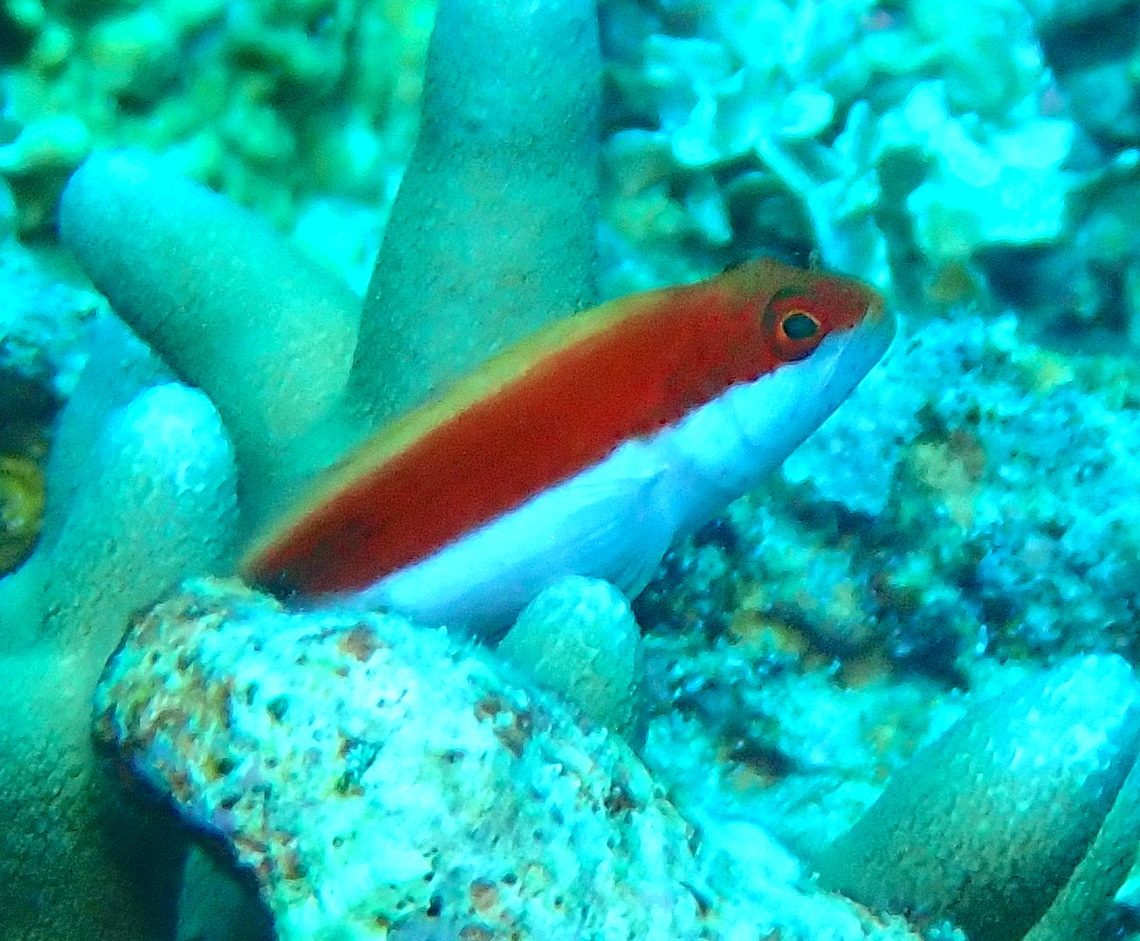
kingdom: Animalia
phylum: Chordata
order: Perciformes
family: Cirrhitidae
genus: Paracirrhites
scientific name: Paracirrhites forsteri
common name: Freckled hawkfish
